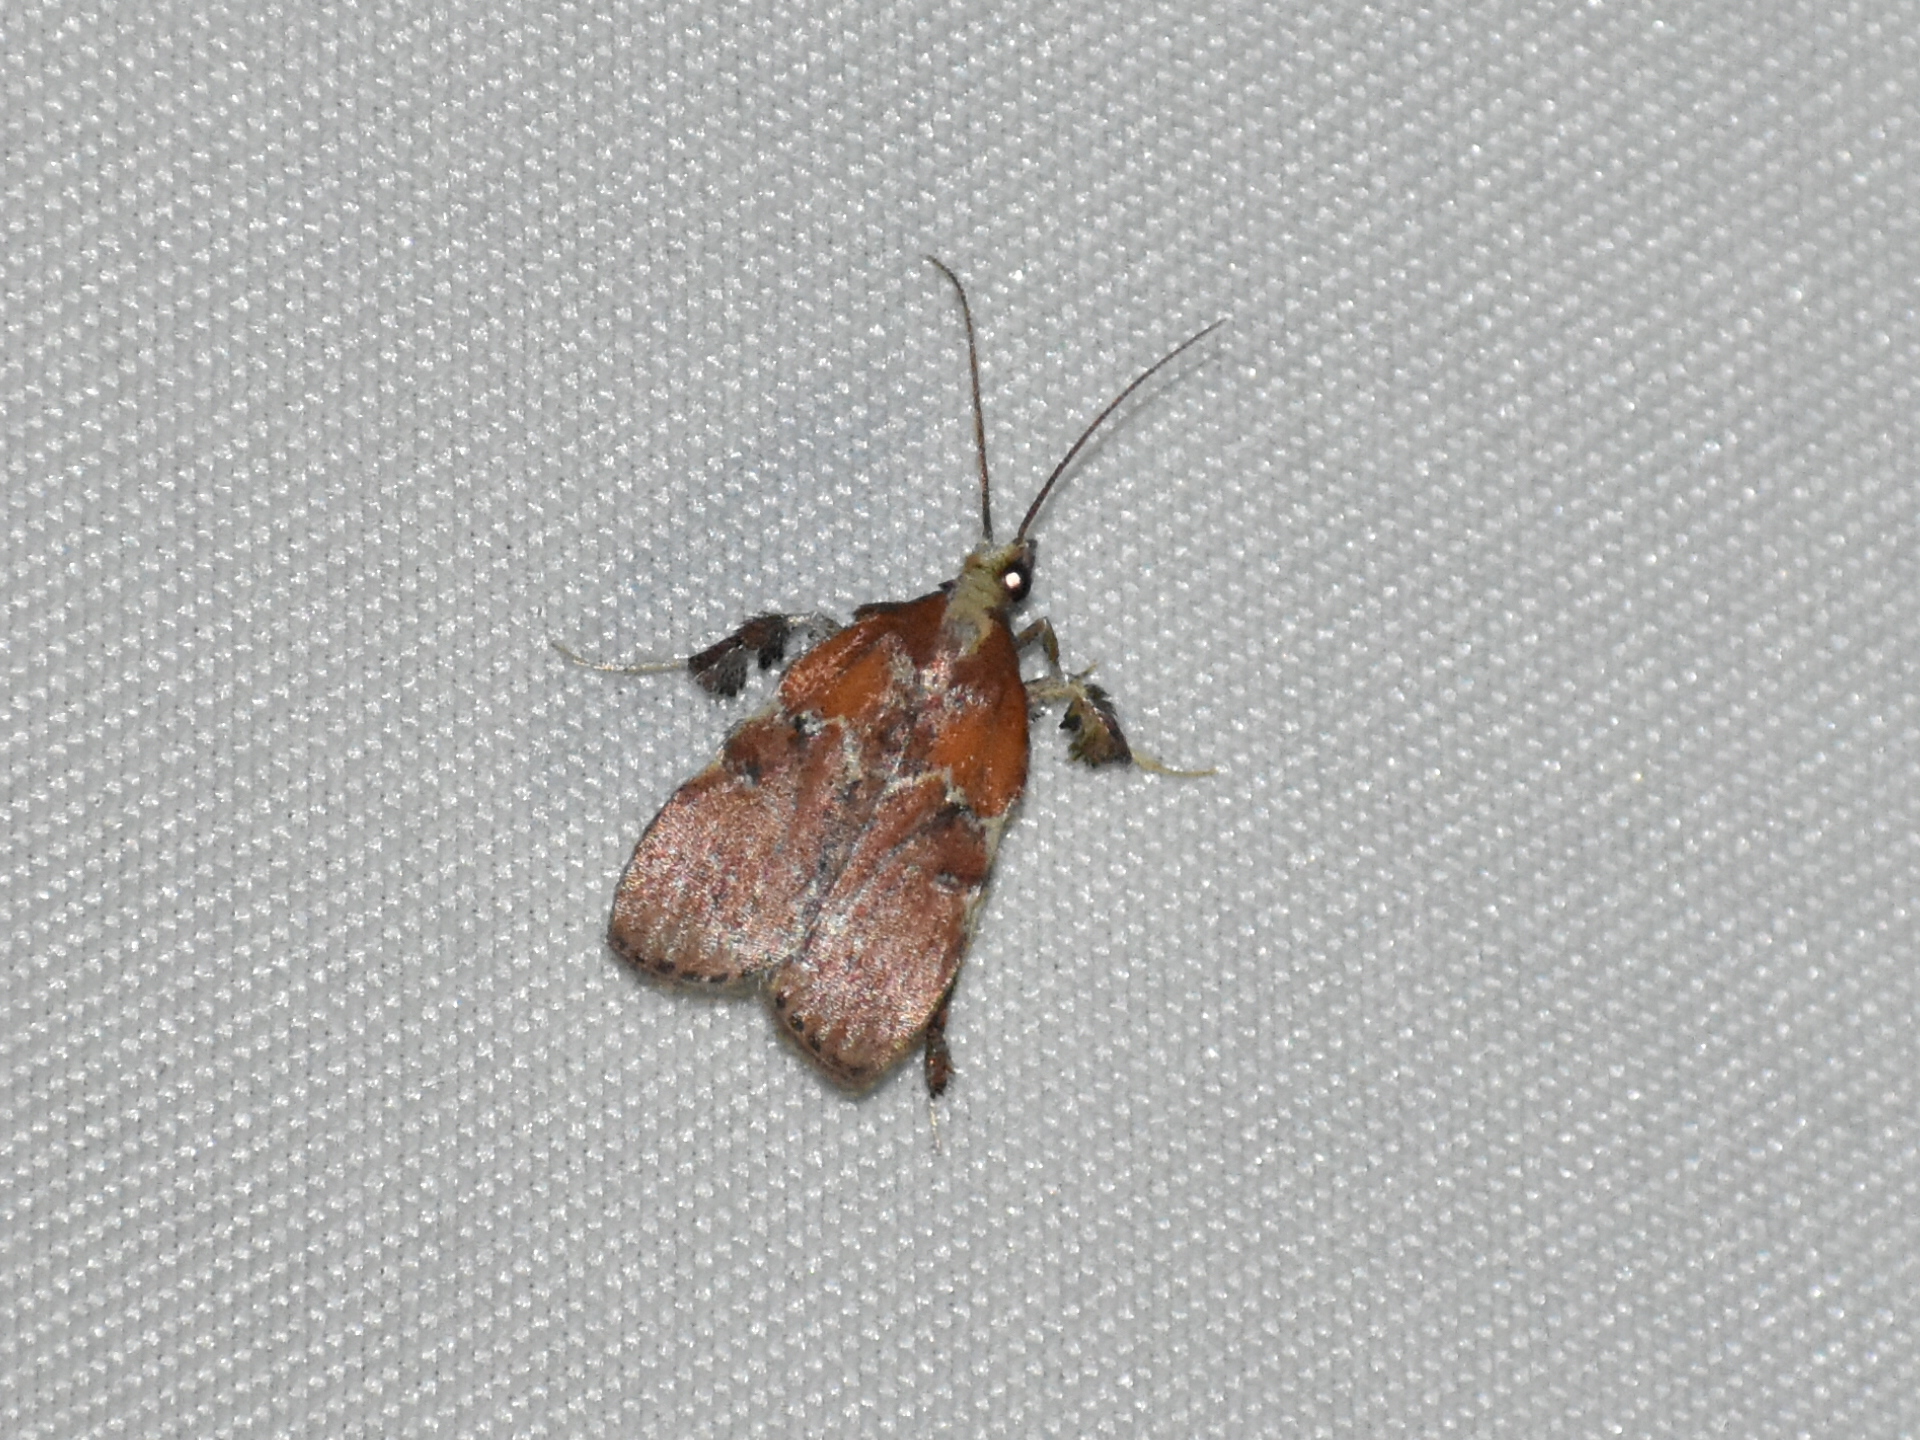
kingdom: Animalia
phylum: Arthropoda
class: Insecta
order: Lepidoptera
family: Pyralidae
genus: Galasa
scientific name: Galasa nigrinodis
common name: Boxwood leaftier moth
